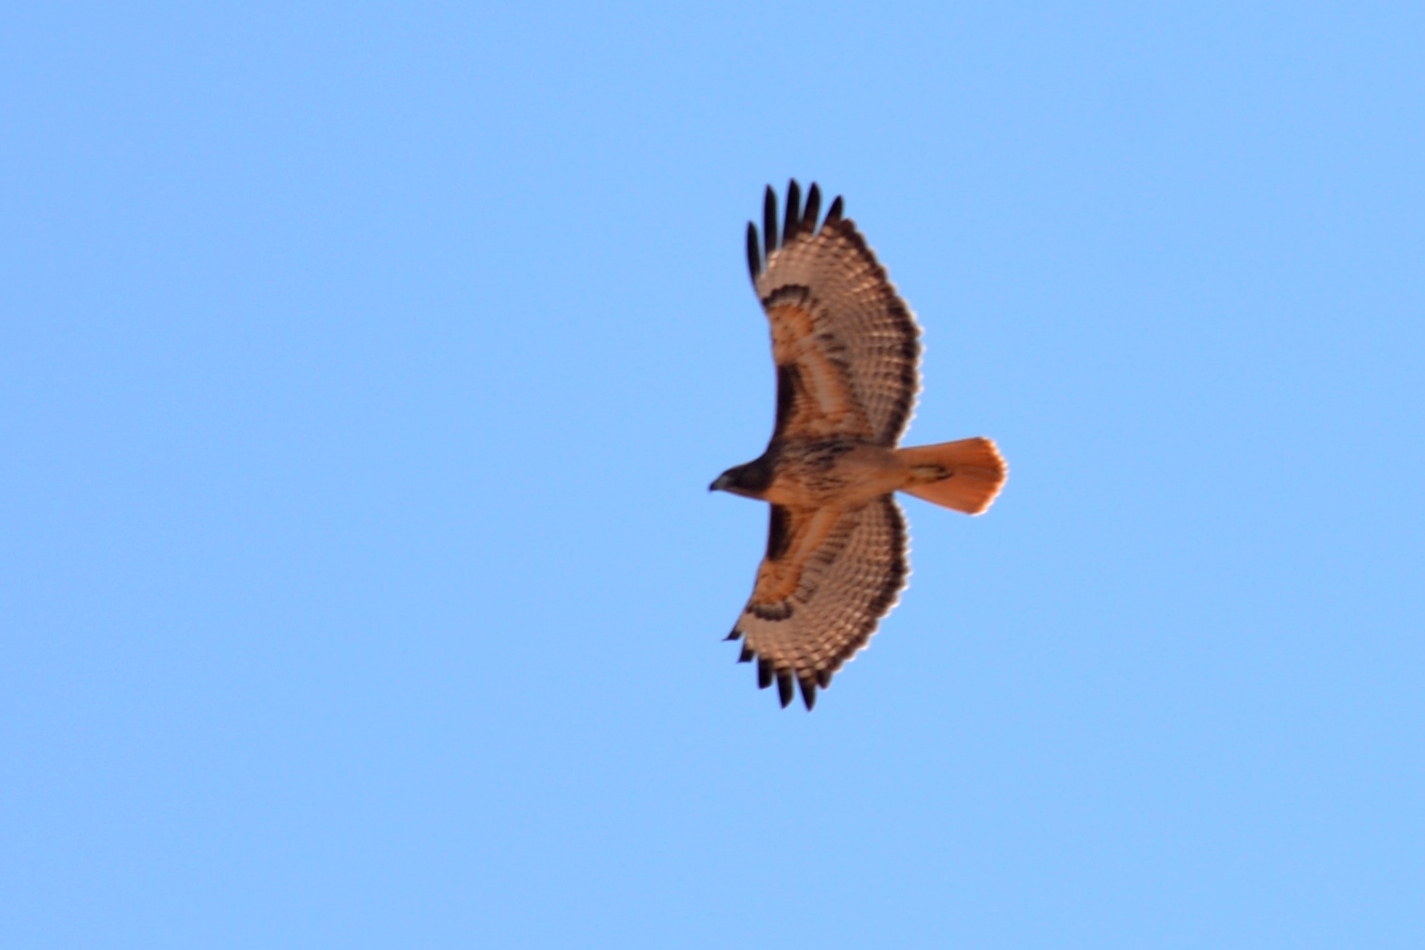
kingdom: Animalia
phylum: Chordata
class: Aves
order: Accipitriformes
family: Accipitridae
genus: Buteo
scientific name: Buteo jamaicensis
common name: Red-tailed hawk
